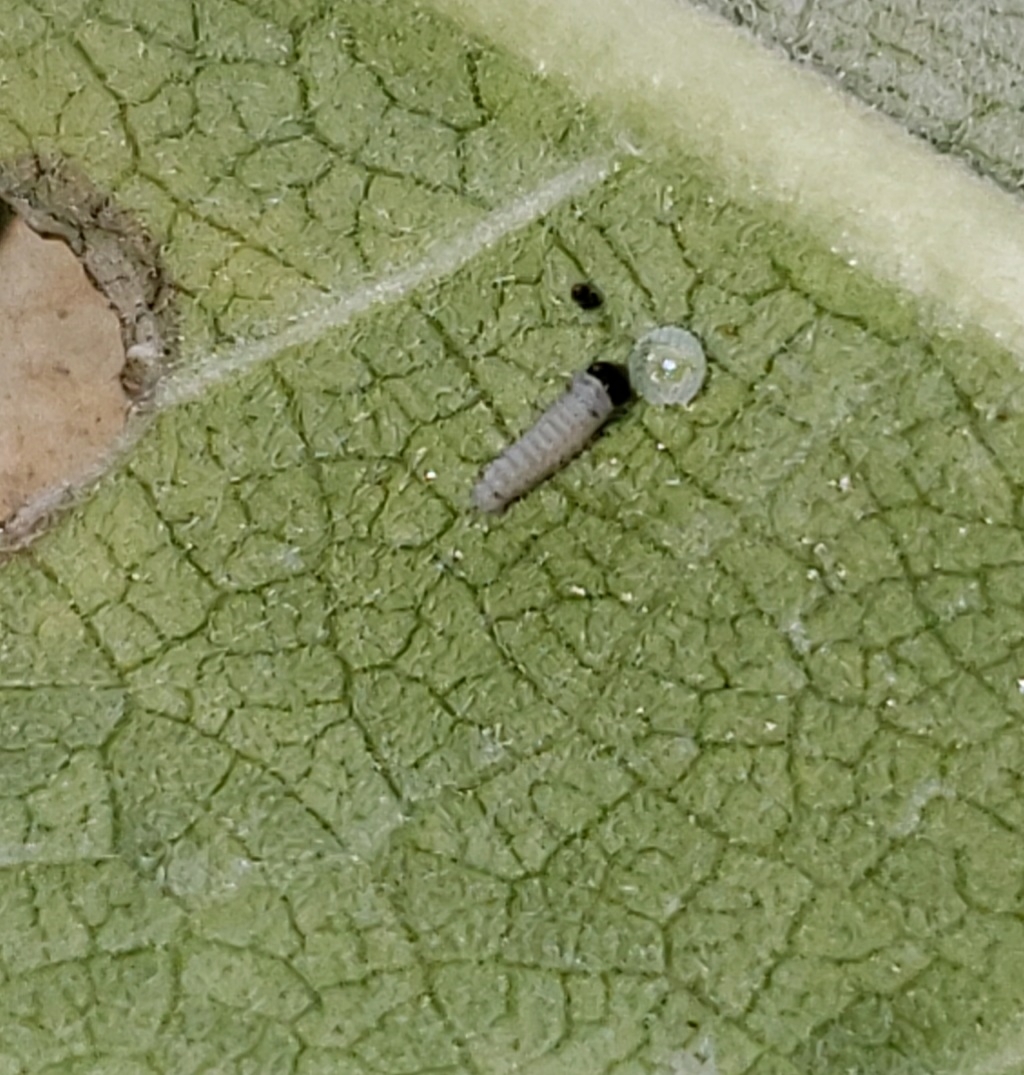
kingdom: Animalia
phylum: Arthropoda
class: Insecta
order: Lepidoptera
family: Nymphalidae
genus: Danaus
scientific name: Danaus plexippus
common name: Monarch
